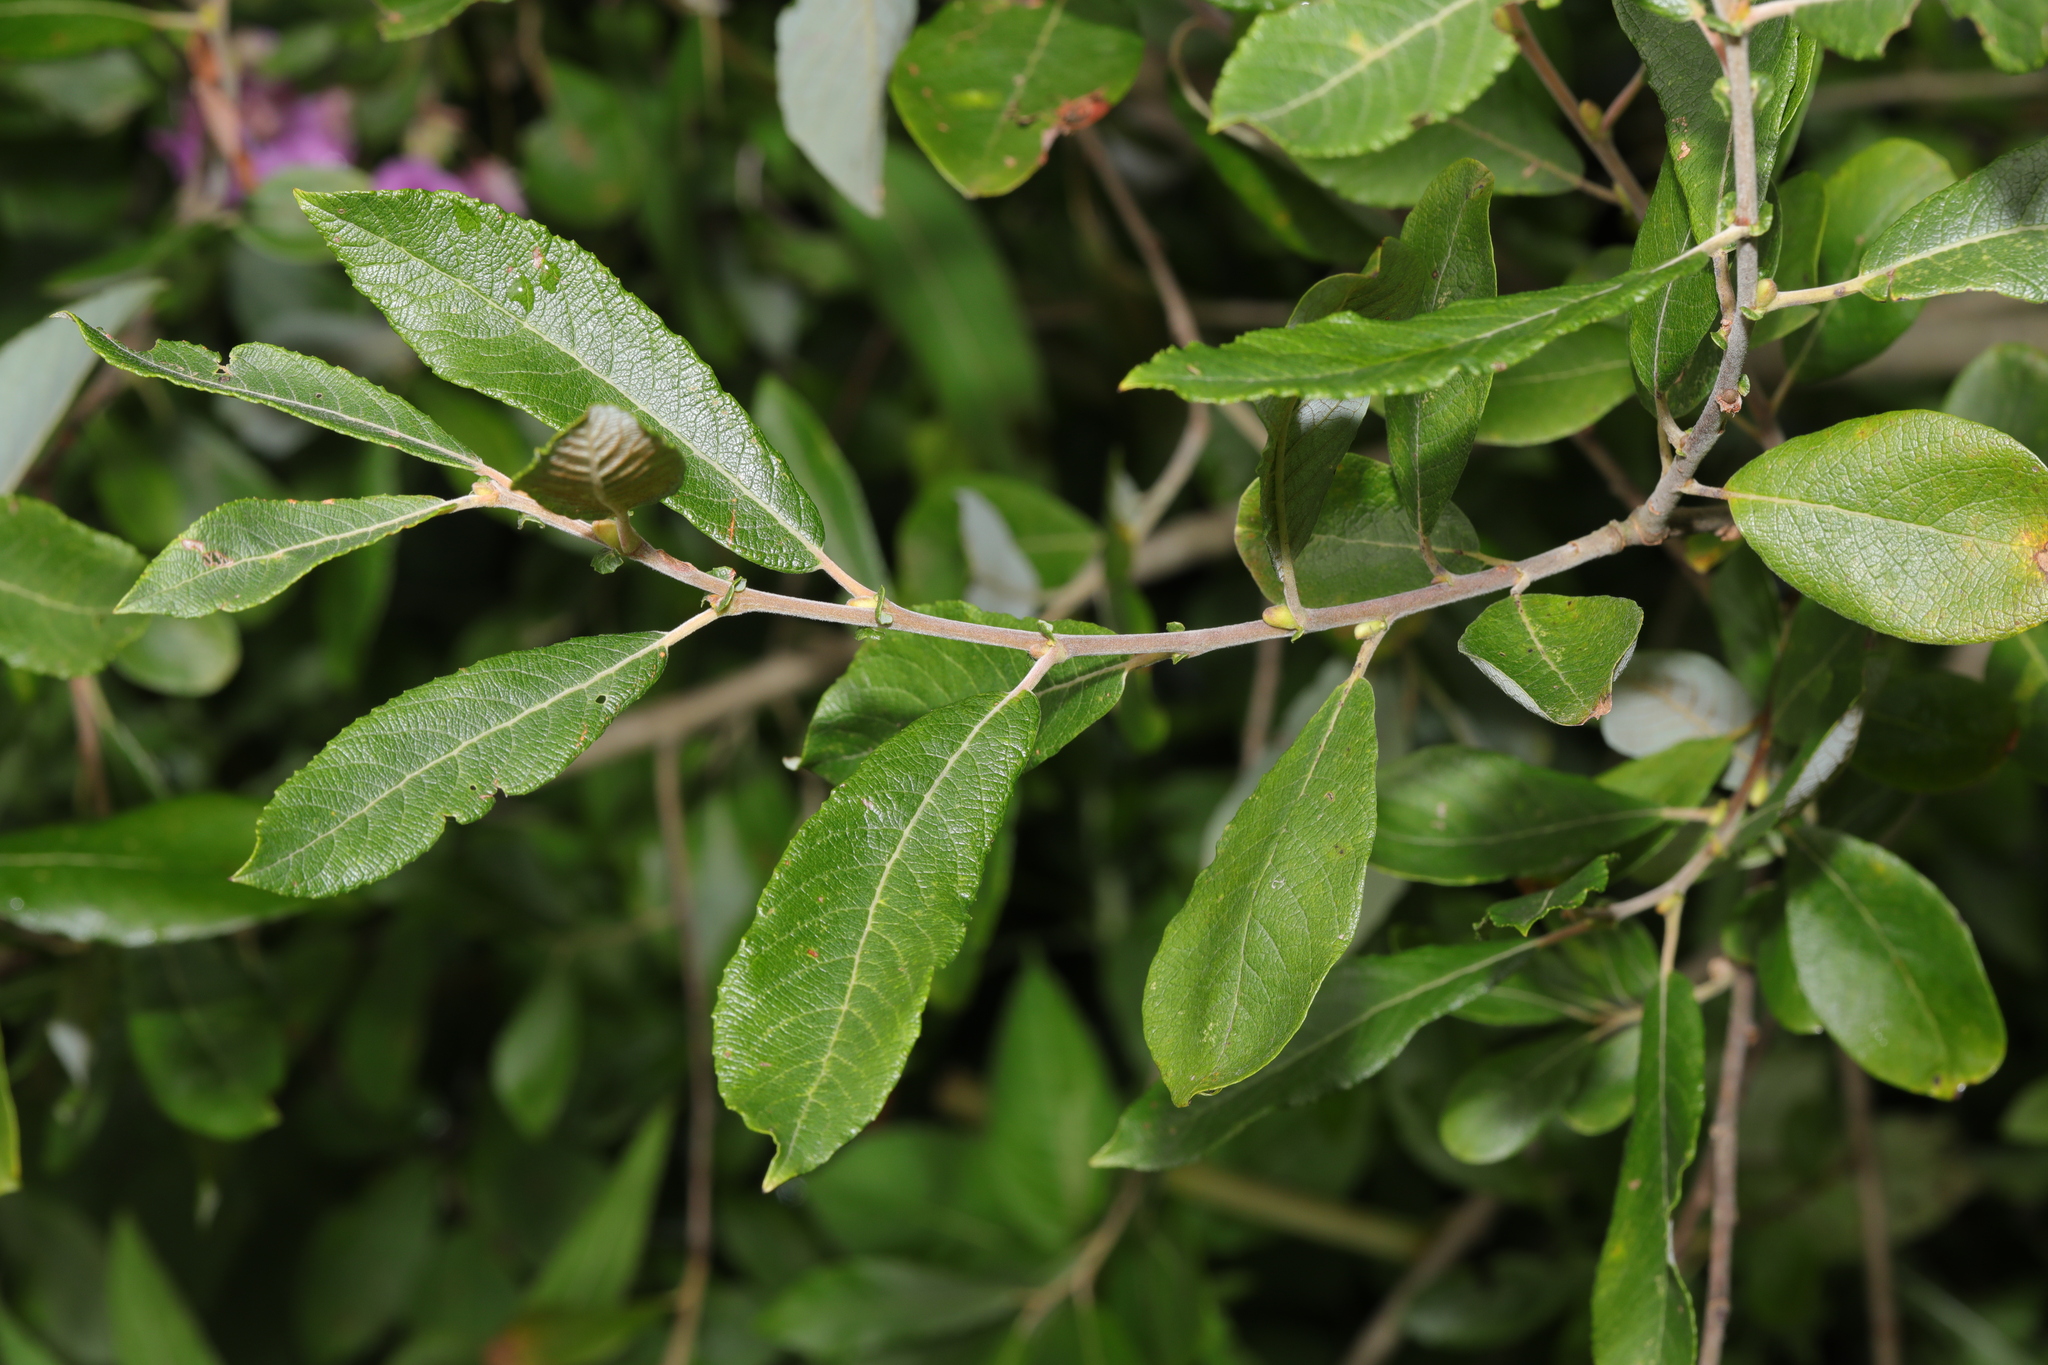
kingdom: Plantae
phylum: Tracheophyta
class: Magnoliopsida
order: Malpighiales
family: Salicaceae
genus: Salix
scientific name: Salix cinerea
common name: Common sallow
